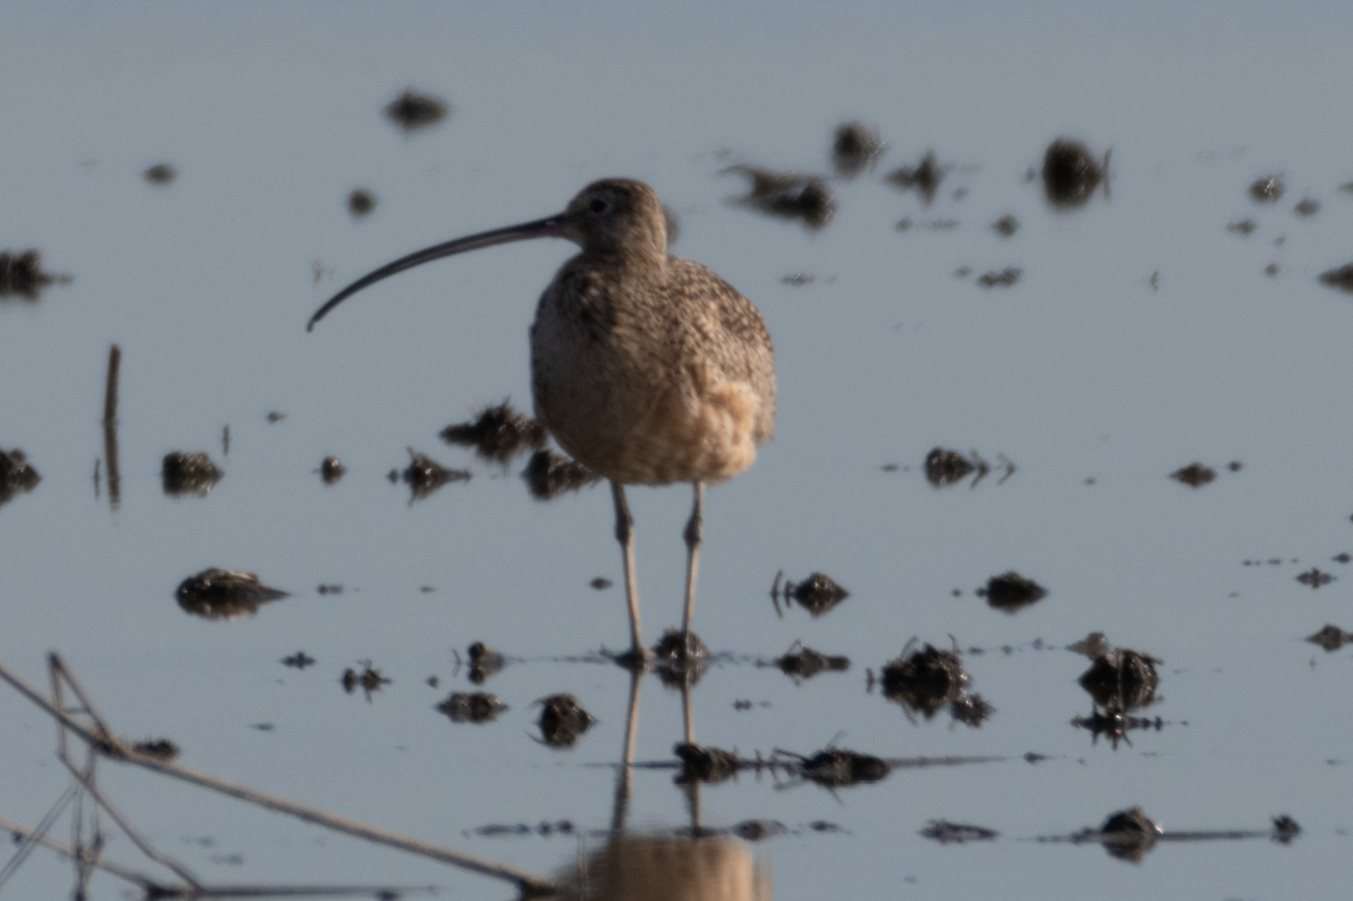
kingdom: Animalia
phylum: Chordata
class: Aves
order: Charadriiformes
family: Scolopacidae
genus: Numenius
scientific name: Numenius americanus
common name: Long-billed curlew
